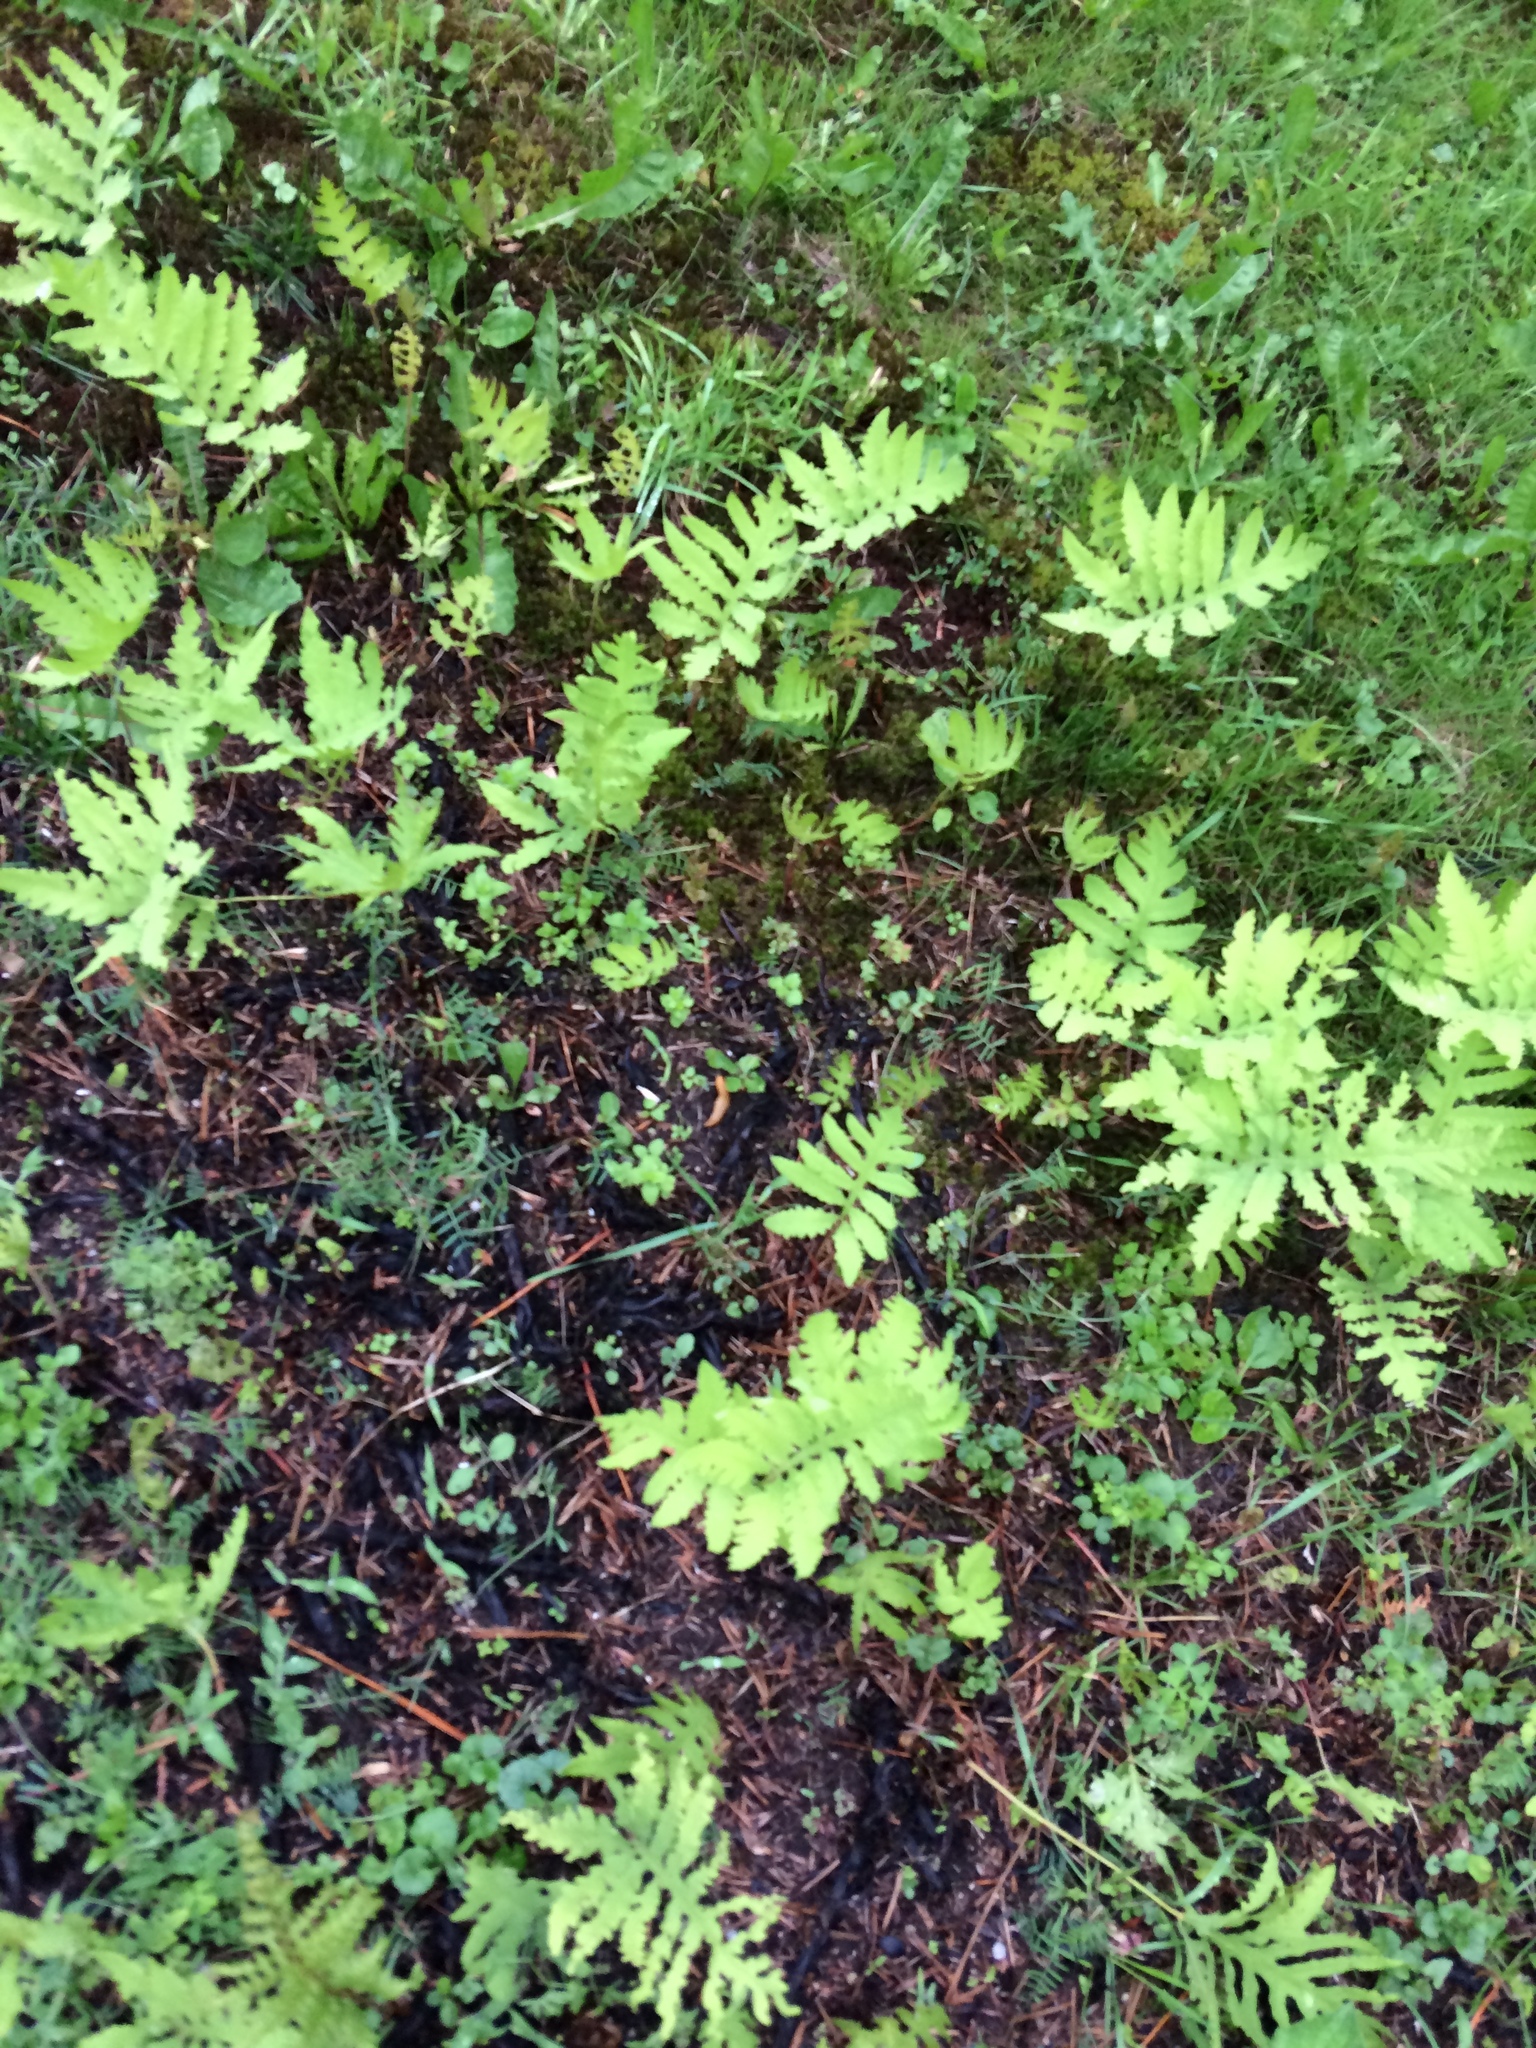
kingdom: Plantae
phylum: Tracheophyta
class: Polypodiopsida
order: Polypodiales
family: Onocleaceae
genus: Onoclea
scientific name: Onoclea sensibilis
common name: Sensitive fern
